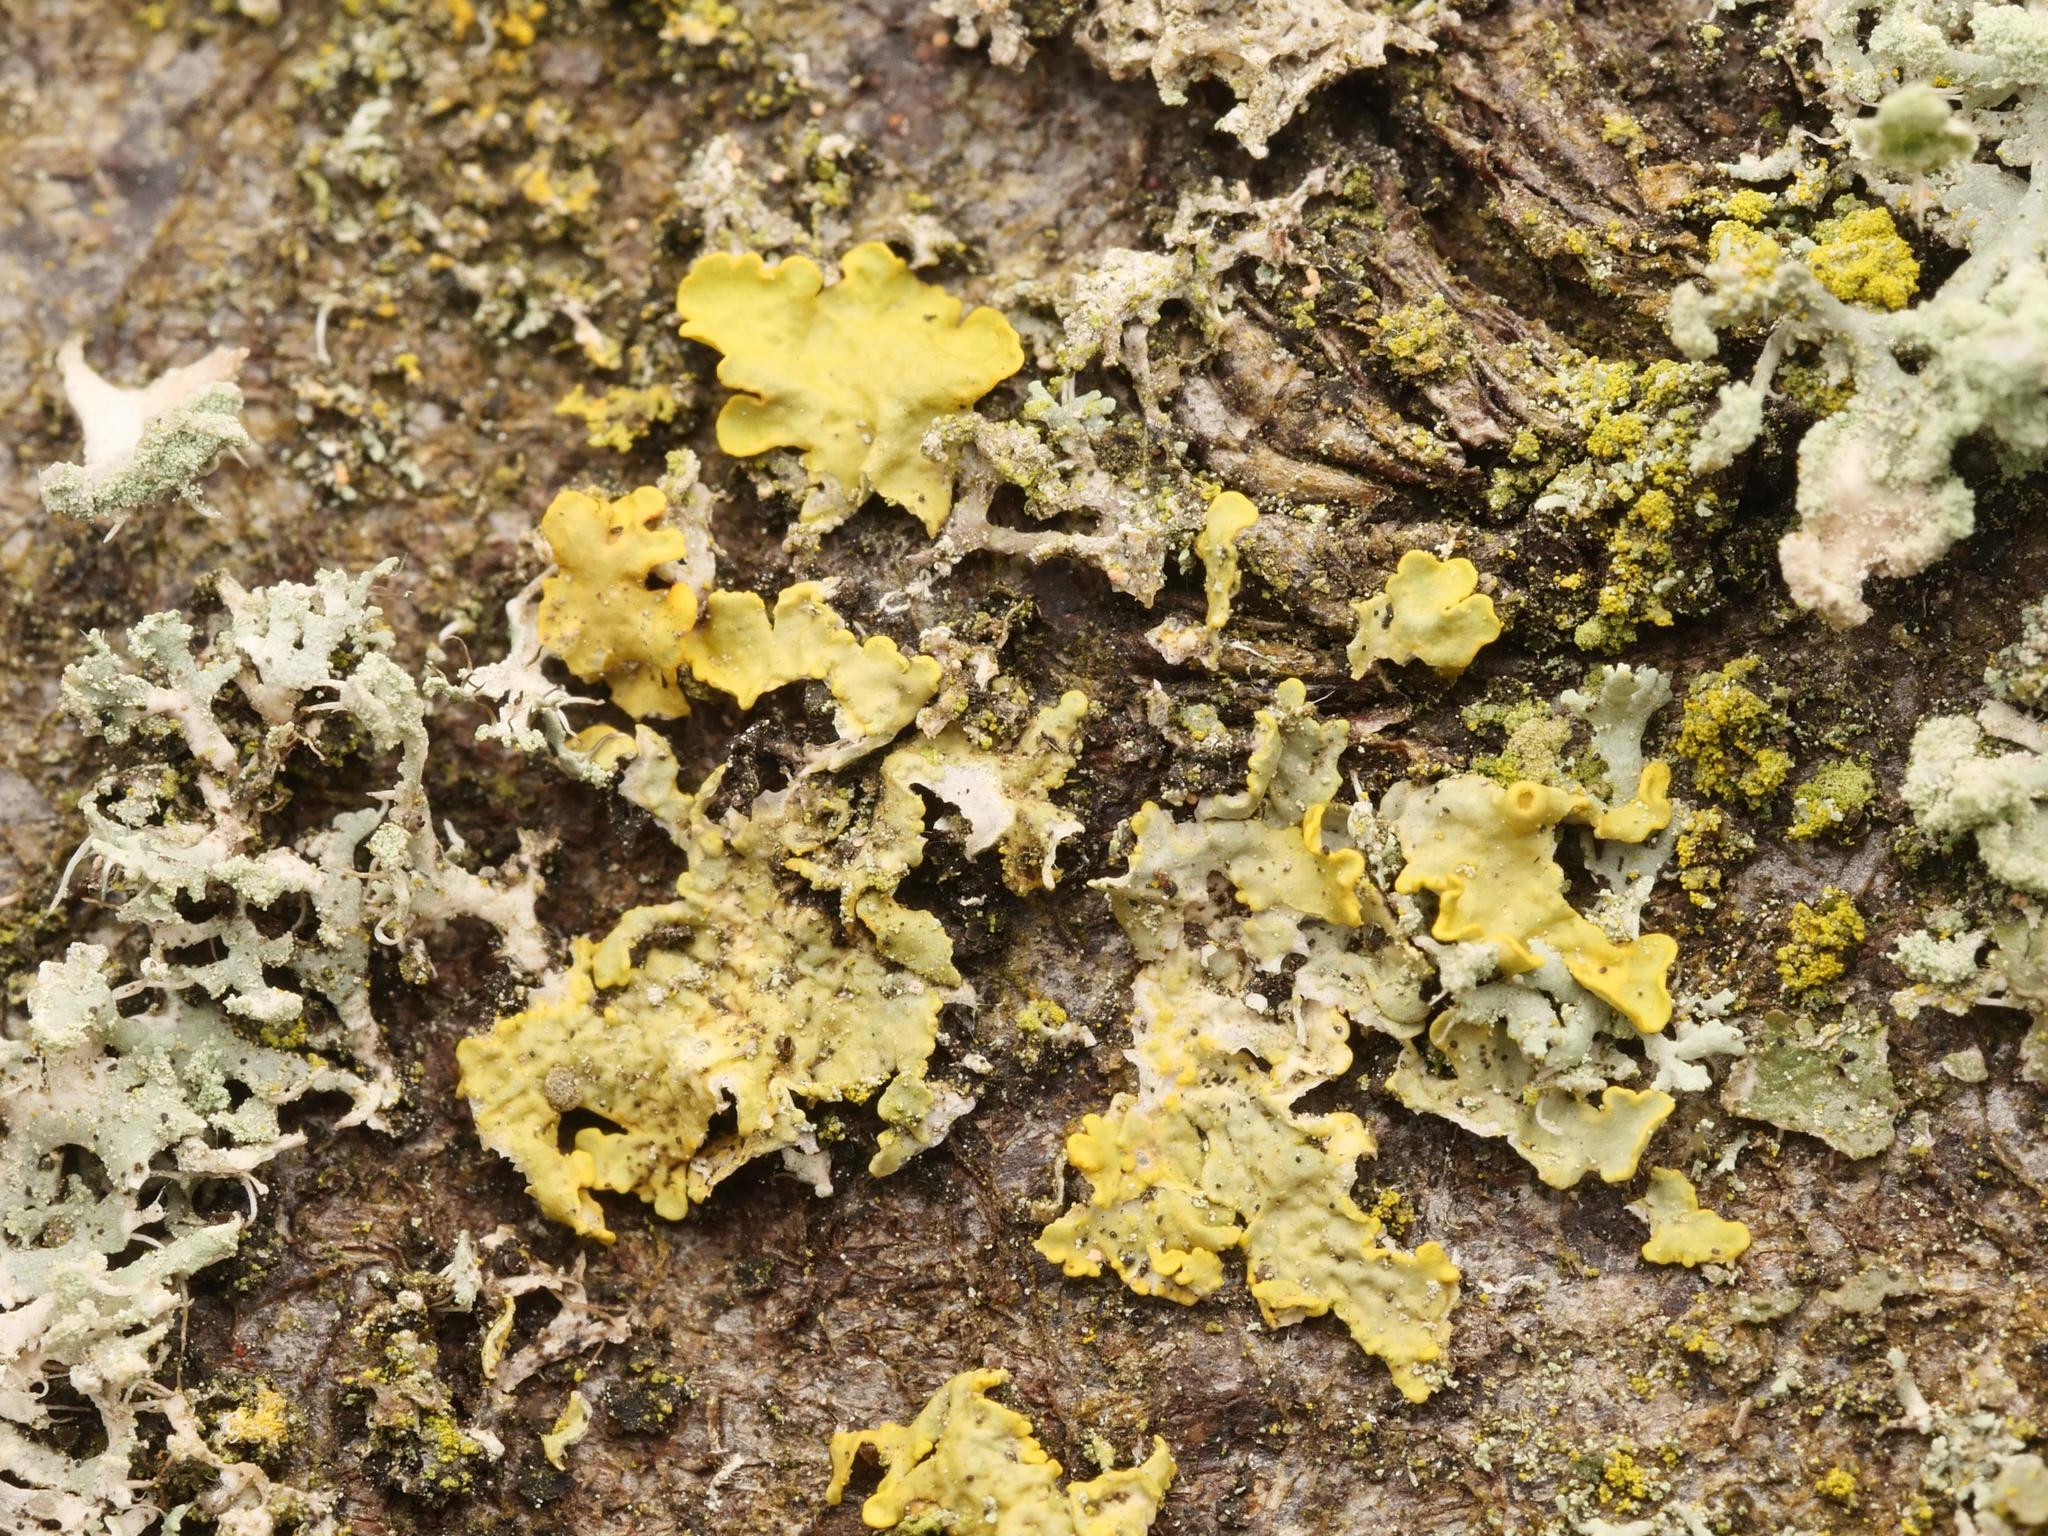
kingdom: Fungi
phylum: Ascomycota
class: Lecanoromycetes
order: Teloschistales
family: Teloschistaceae
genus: Xanthoria
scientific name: Xanthoria parietina
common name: Common orange lichen
